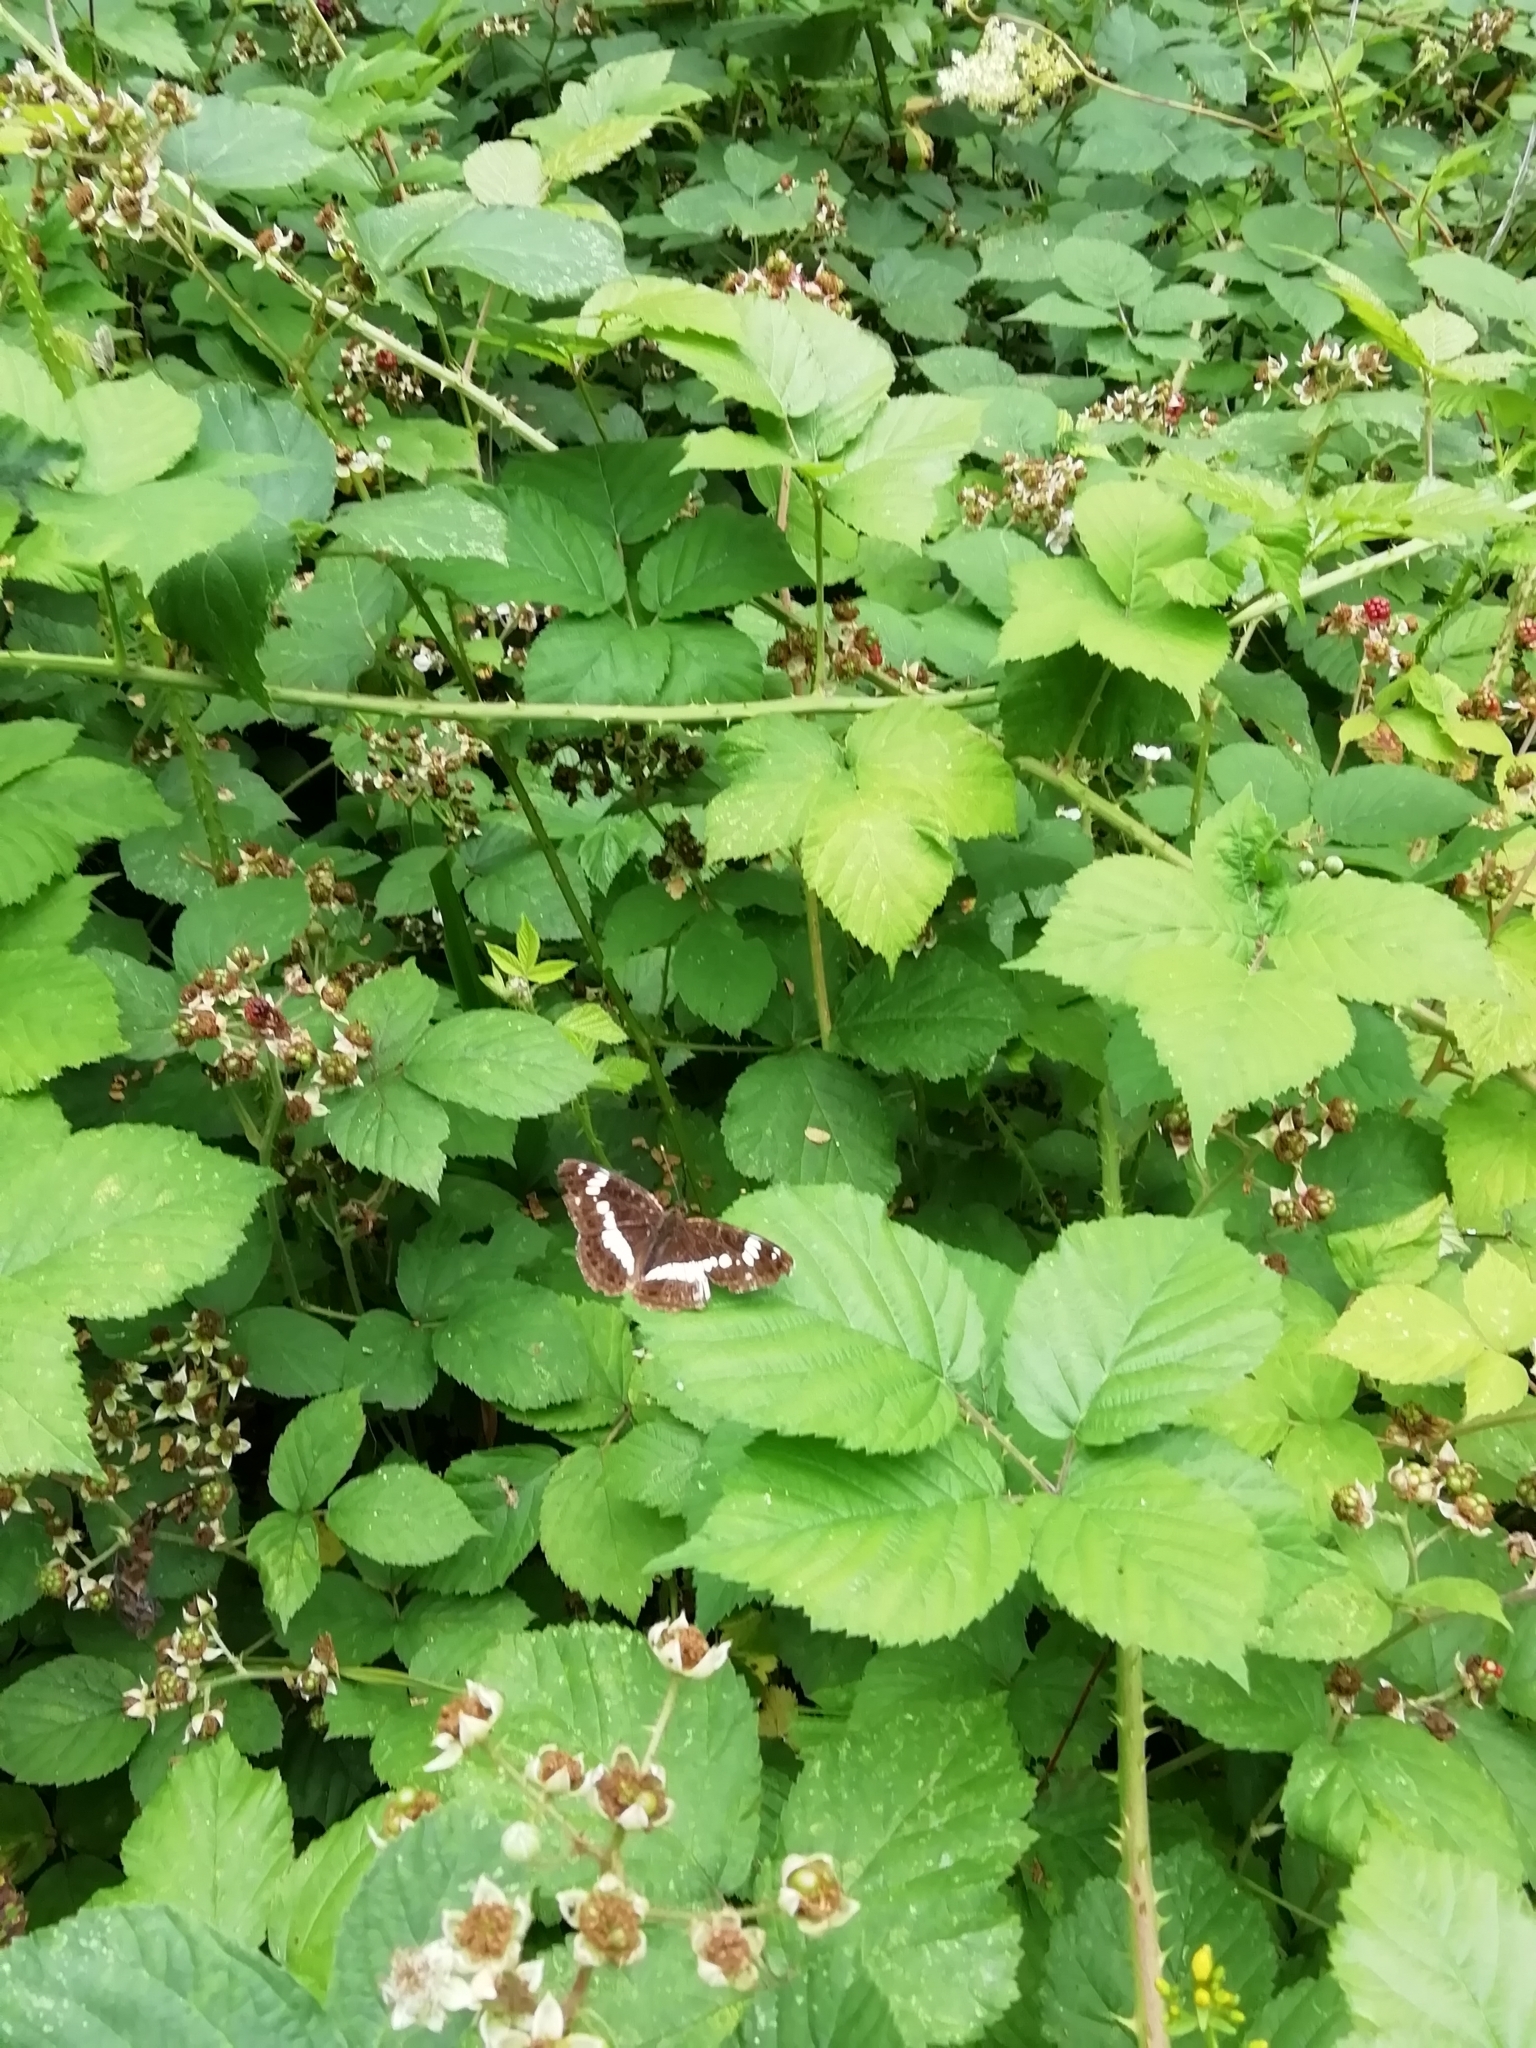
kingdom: Animalia
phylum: Arthropoda
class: Insecta
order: Lepidoptera
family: Nymphalidae
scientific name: Nymphalidae
